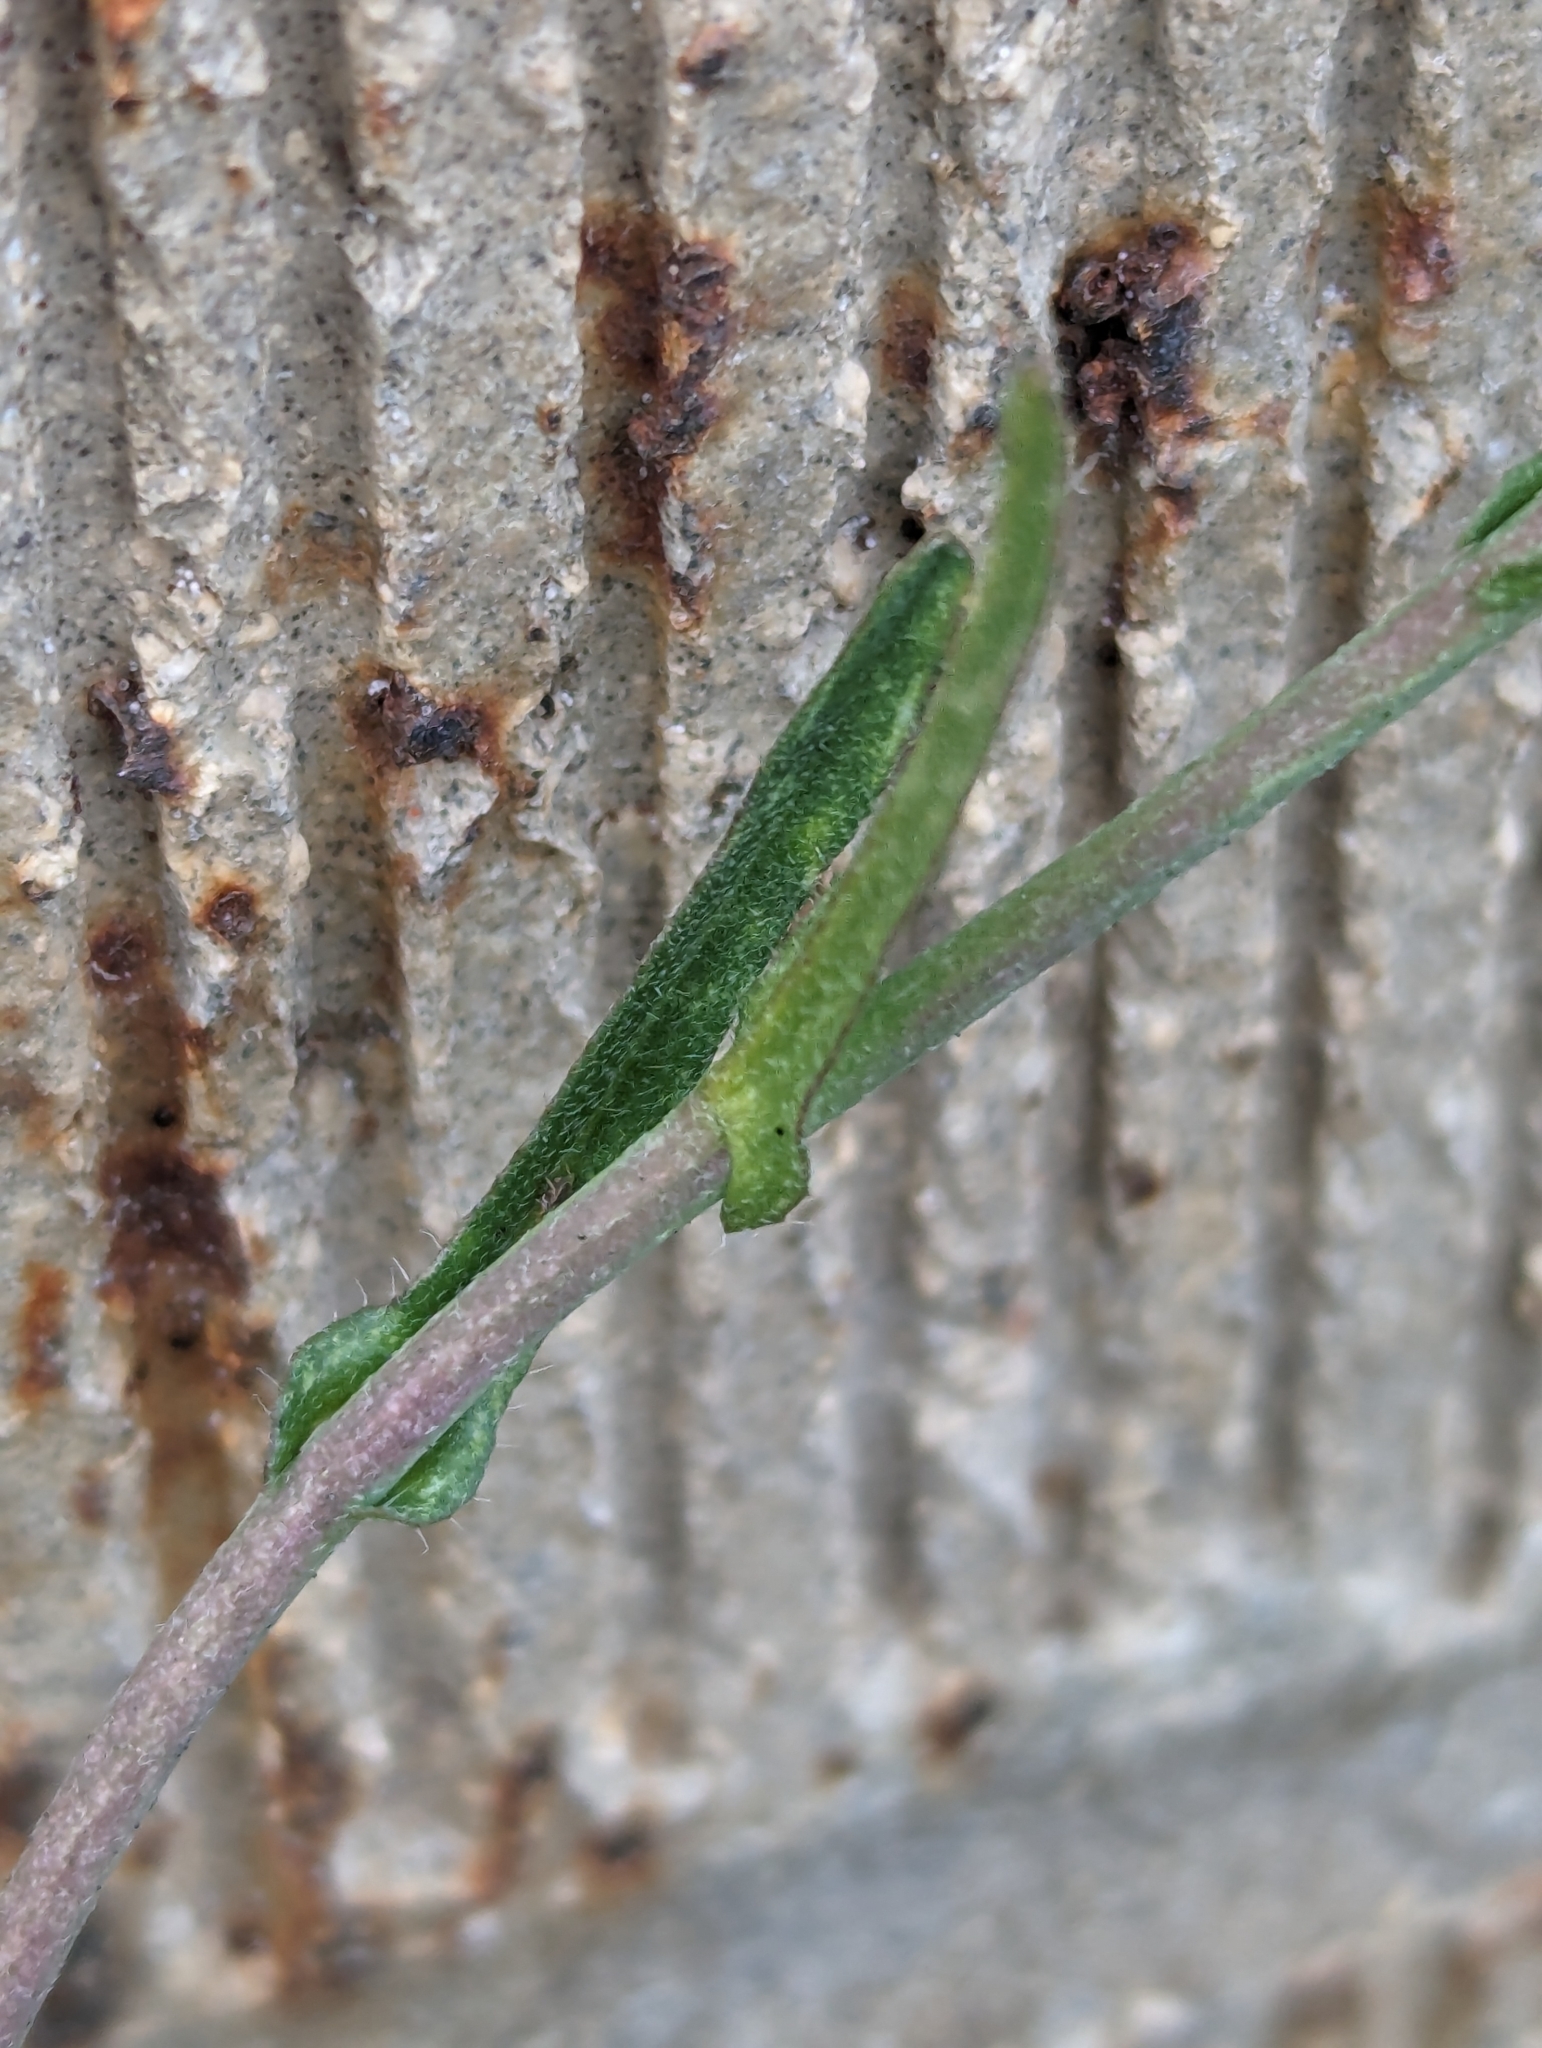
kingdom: Plantae
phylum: Tracheophyta
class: Magnoliopsida
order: Brassicales
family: Brassicaceae
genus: Capsella
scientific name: Capsella bursa-pastoris
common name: Shepherd's purse
